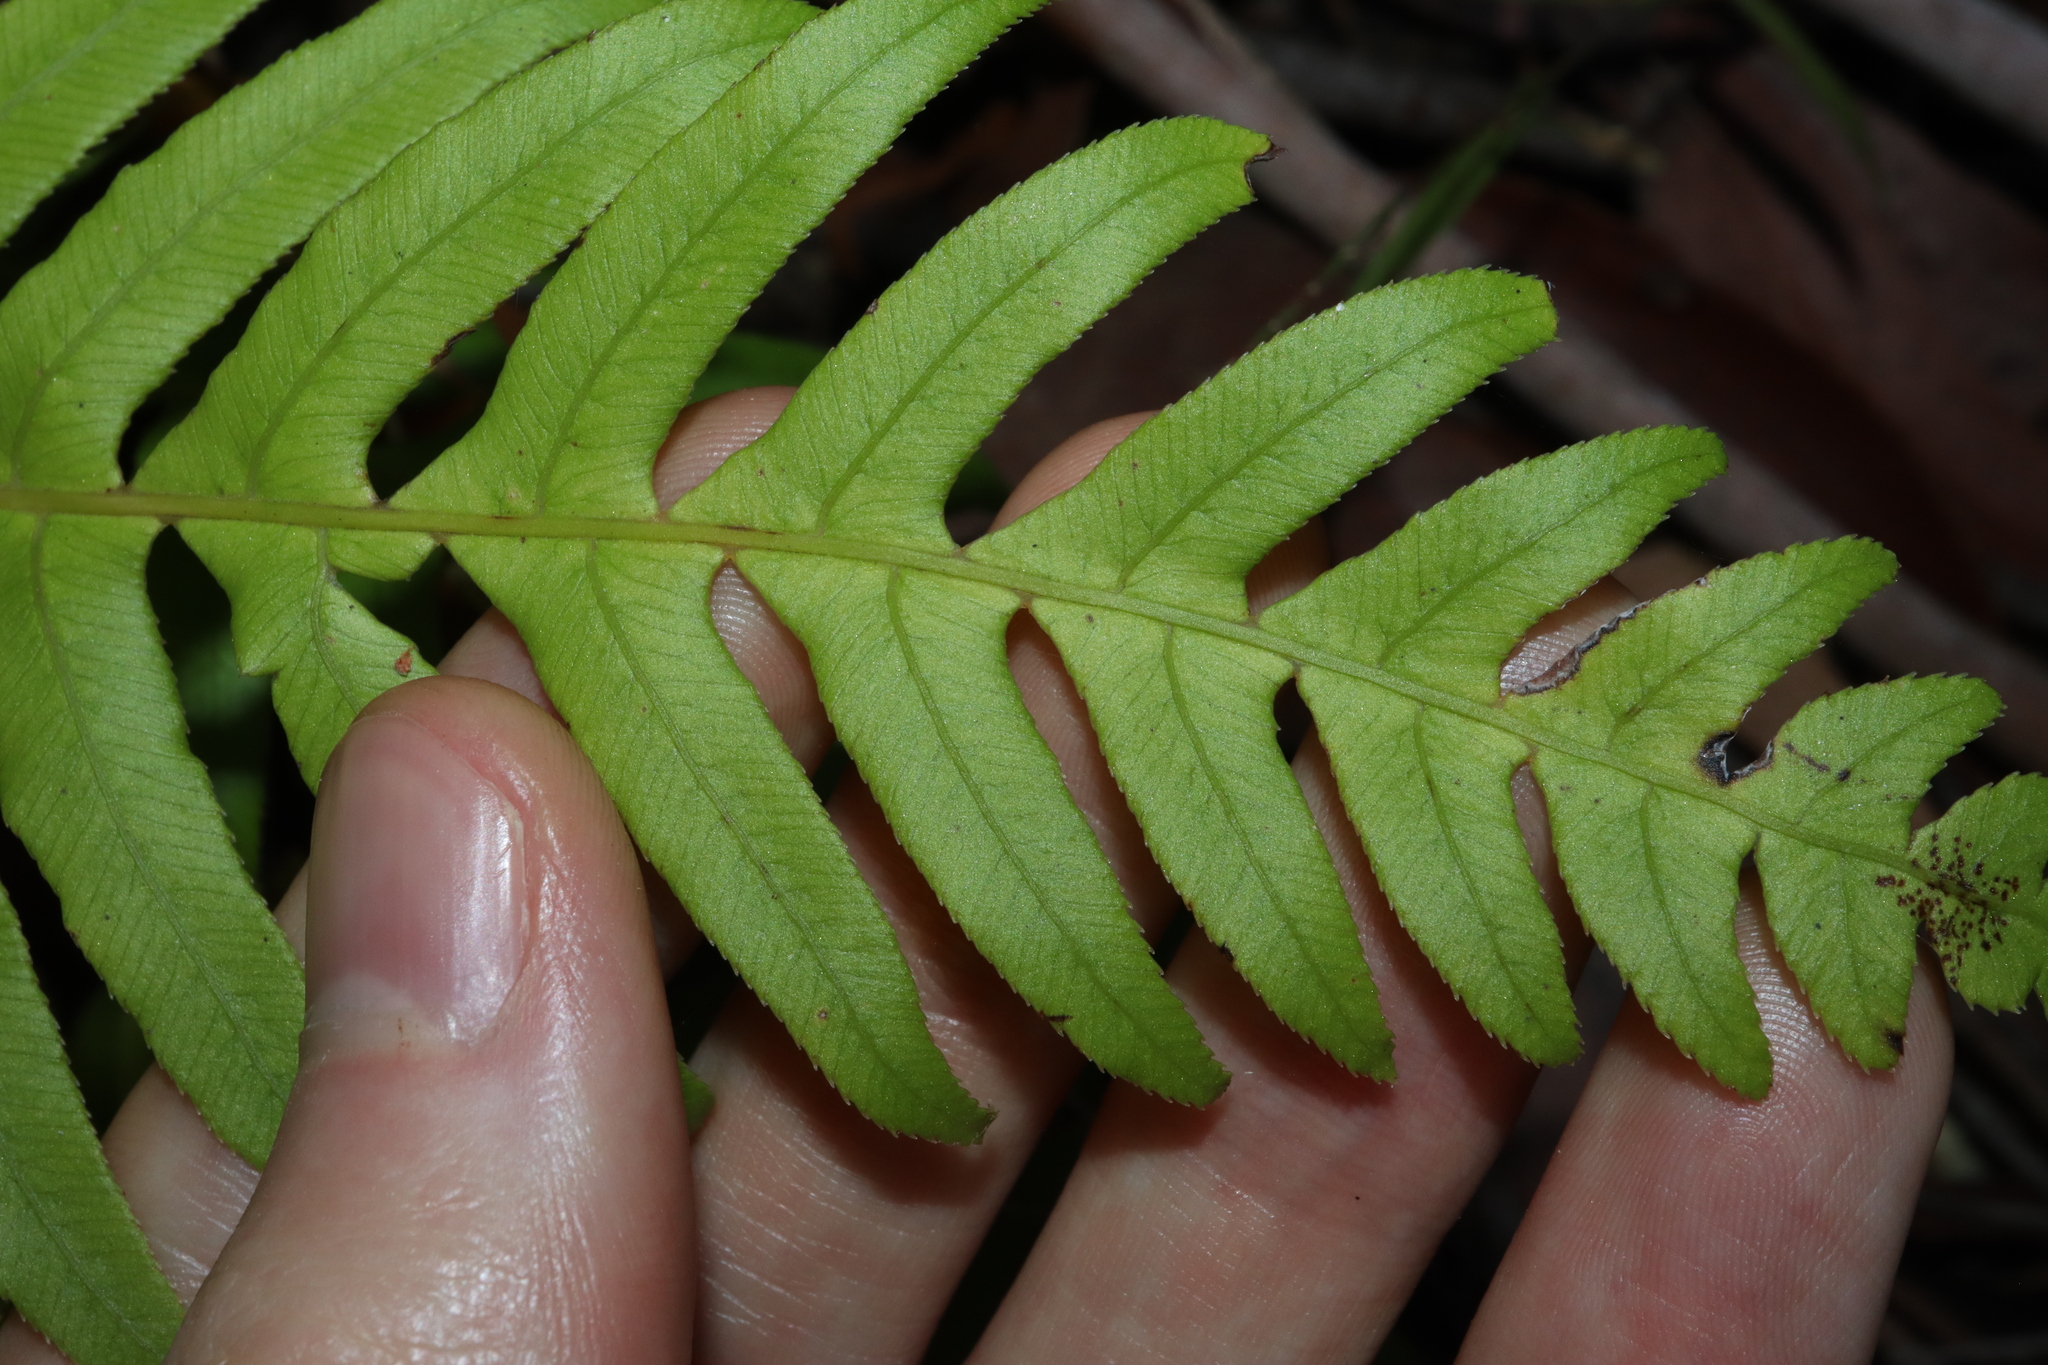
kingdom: Plantae
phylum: Tracheophyta
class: Polypodiopsida
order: Polypodiales
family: Blechnaceae
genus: Oceaniopteris
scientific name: Oceaniopteris cartilaginea
